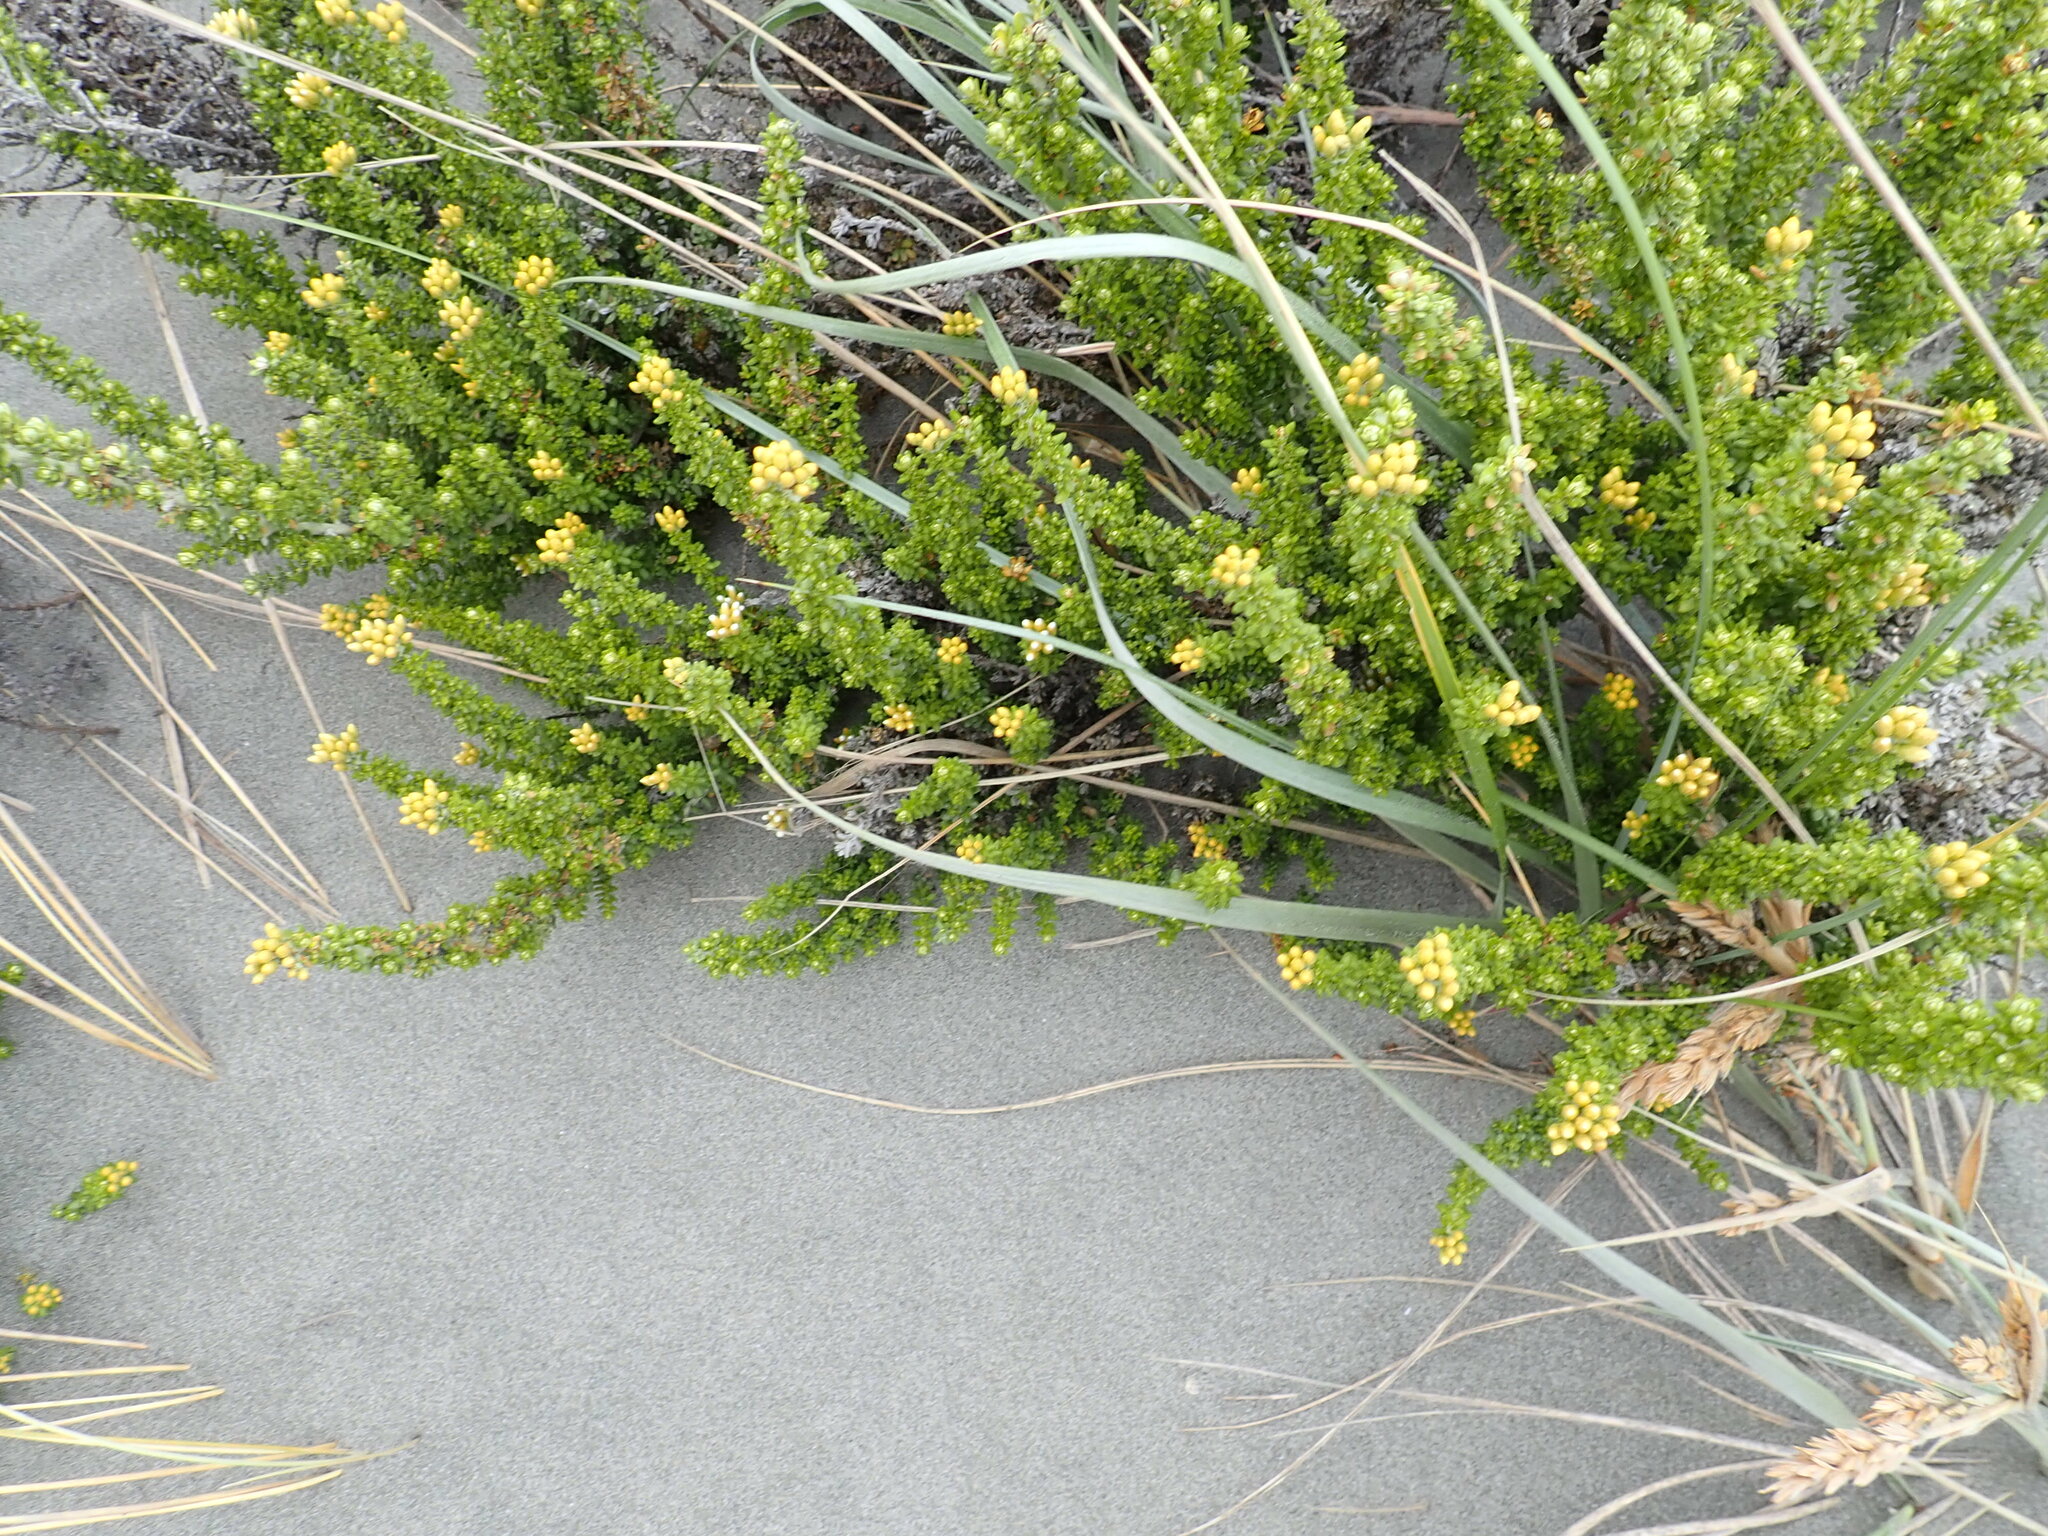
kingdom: Plantae
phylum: Tracheophyta
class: Magnoliopsida
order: Asterales
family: Asteraceae
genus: Ozothamnus
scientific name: Ozothamnus leptophyllus
